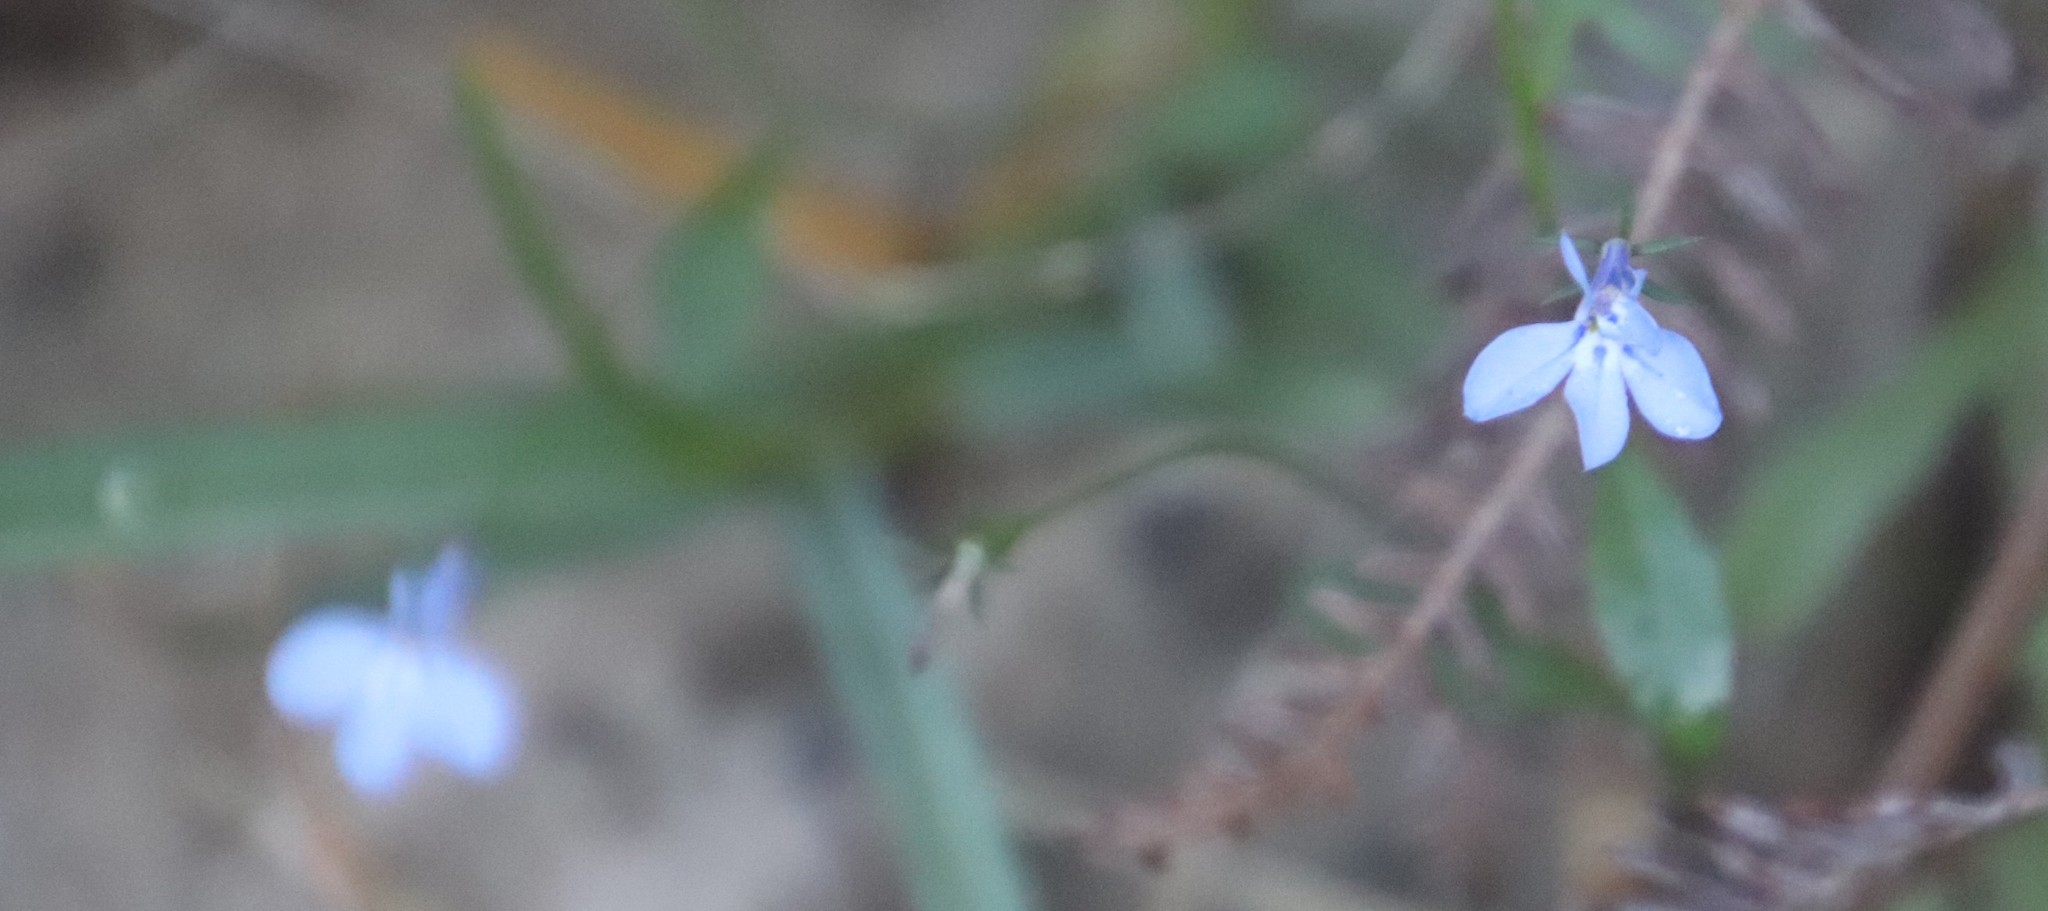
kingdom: Plantae
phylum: Tracheophyta
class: Magnoliopsida
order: Asterales
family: Campanulaceae
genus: Lobelia
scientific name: Lobelia erinus
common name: Edging lobelia
